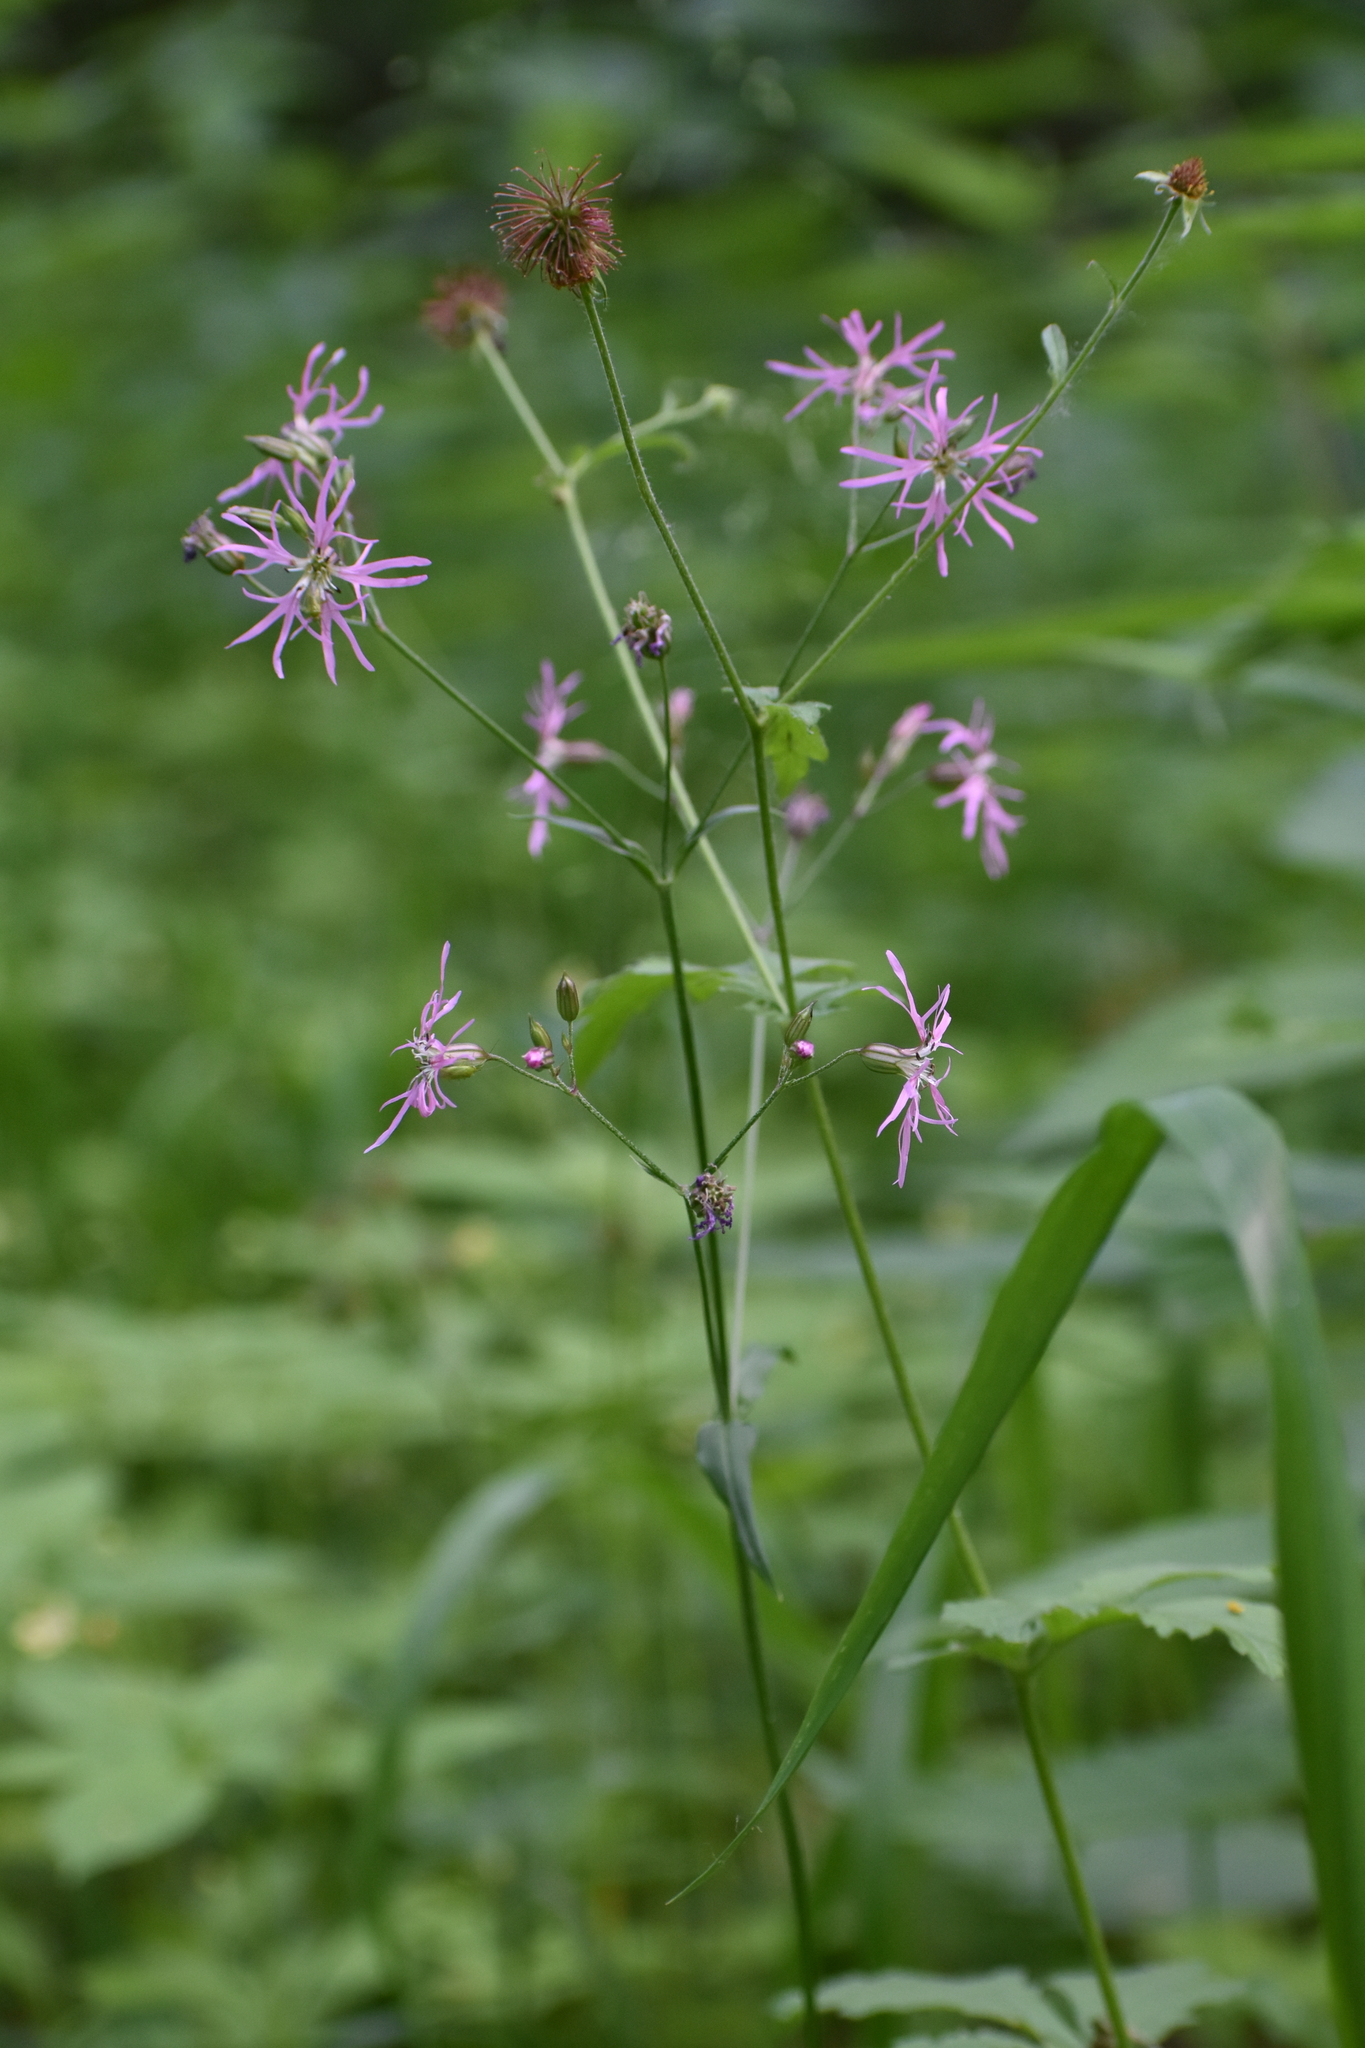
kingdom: Plantae
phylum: Tracheophyta
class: Magnoliopsida
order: Caryophyllales
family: Caryophyllaceae
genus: Silene
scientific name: Silene flos-cuculi
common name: Ragged-robin
